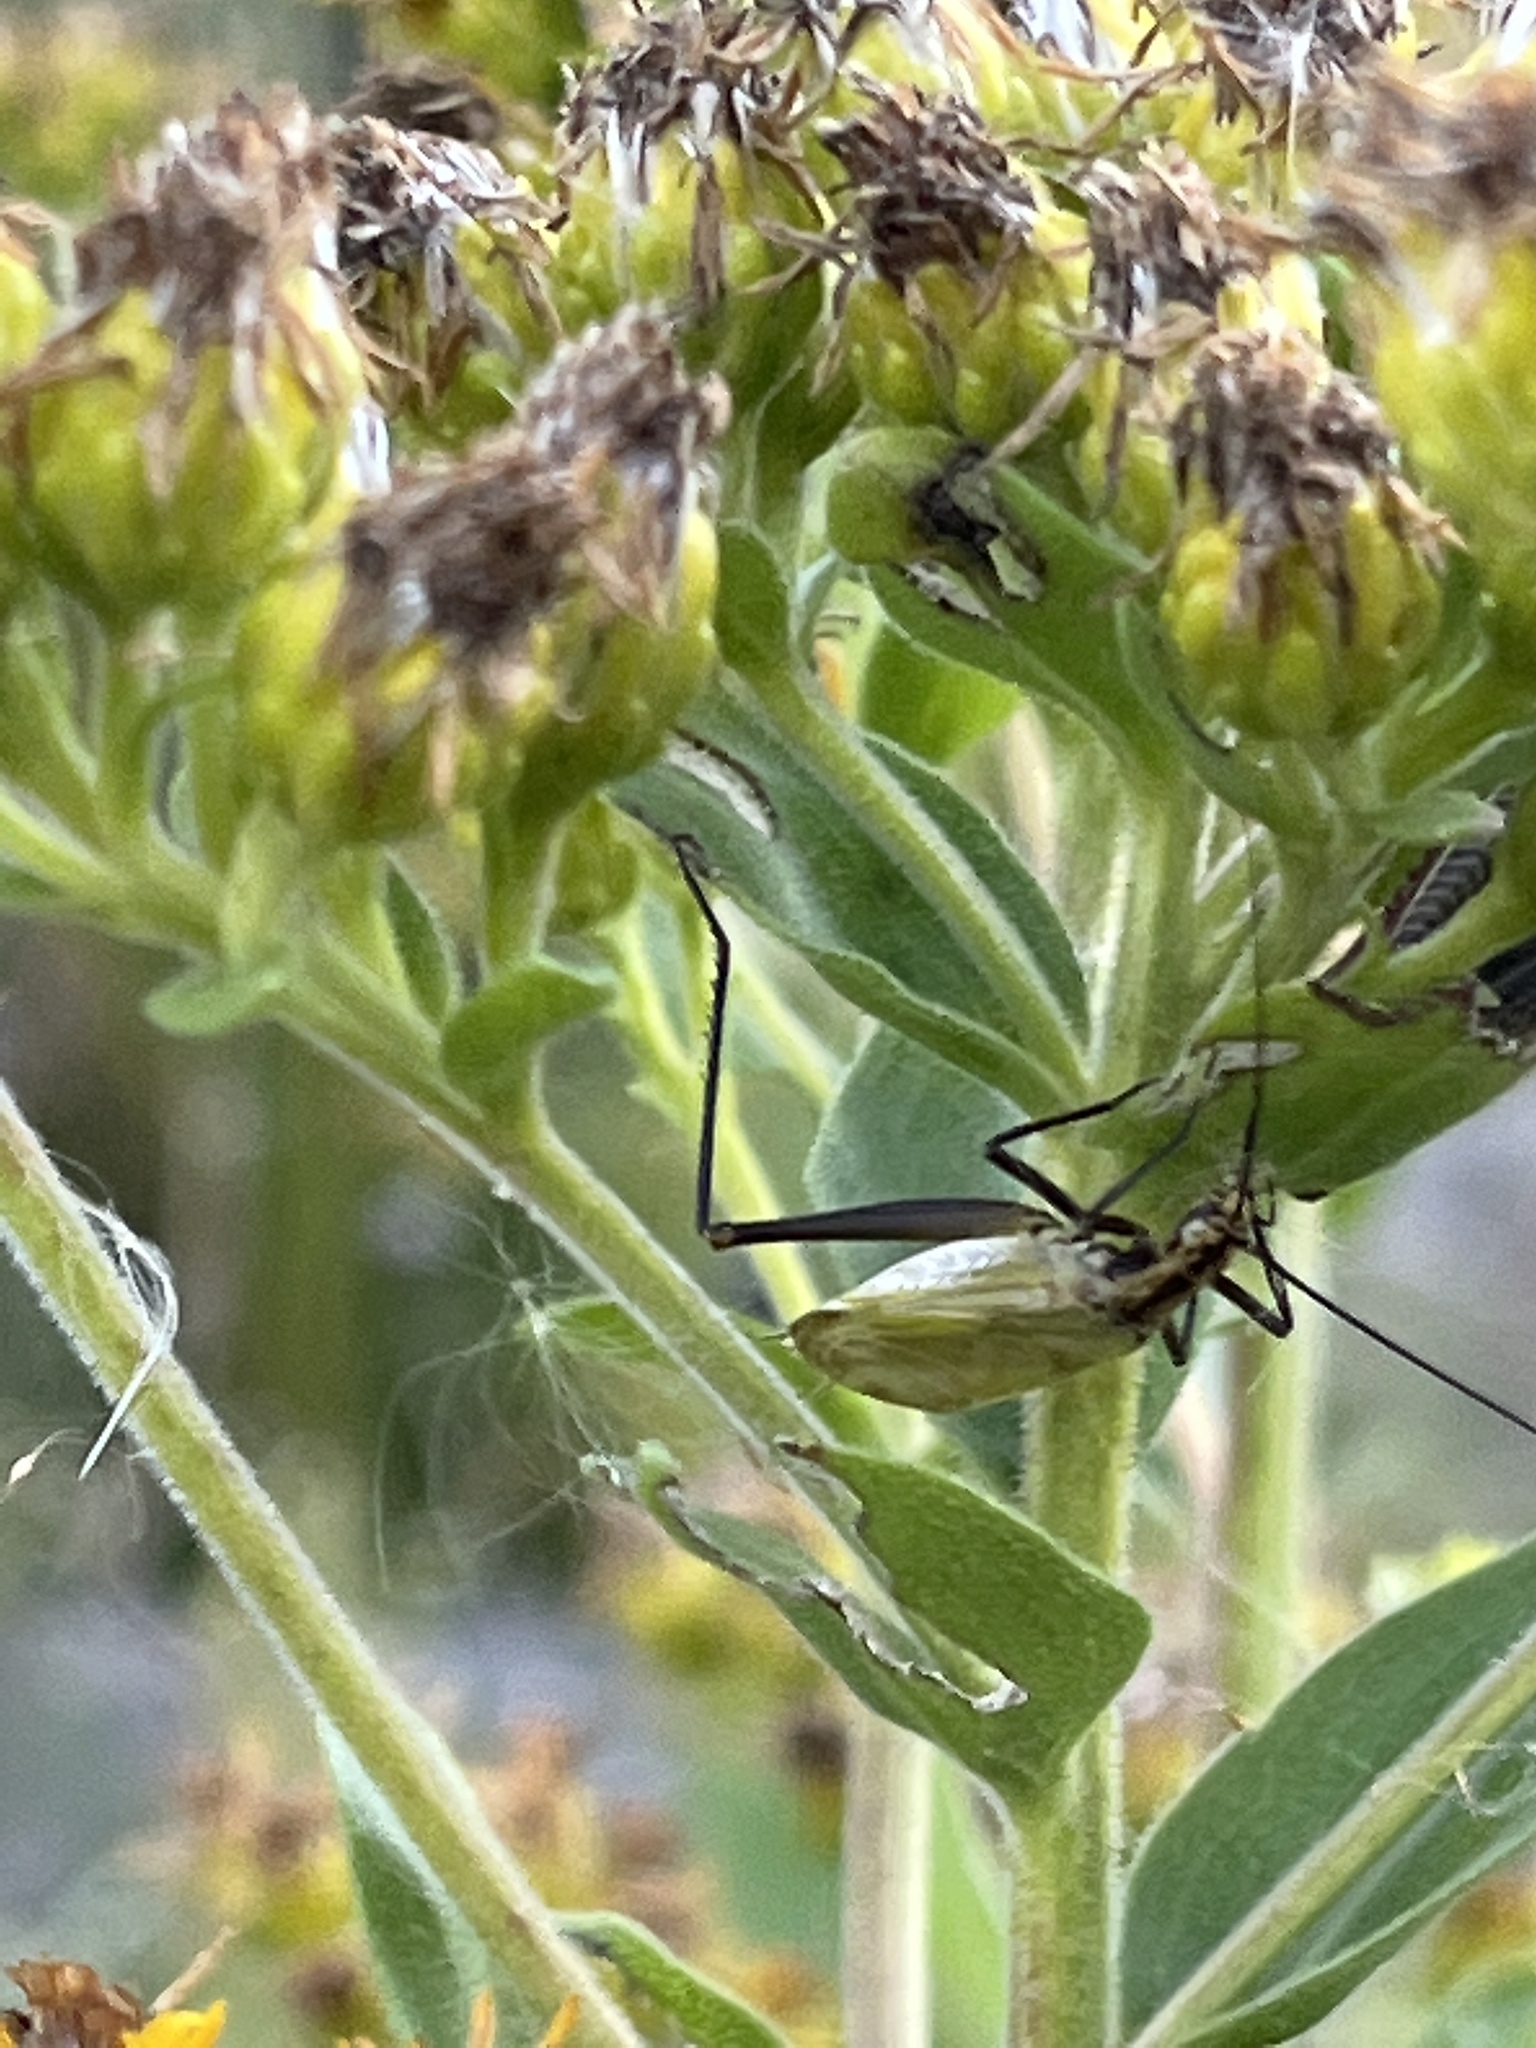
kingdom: Animalia
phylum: Arthropoda
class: Insecta
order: Orthoptera
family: Gryllidae
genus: Oecanthus
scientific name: Oecanthus nigricornis
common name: Black-horned tree cricket
